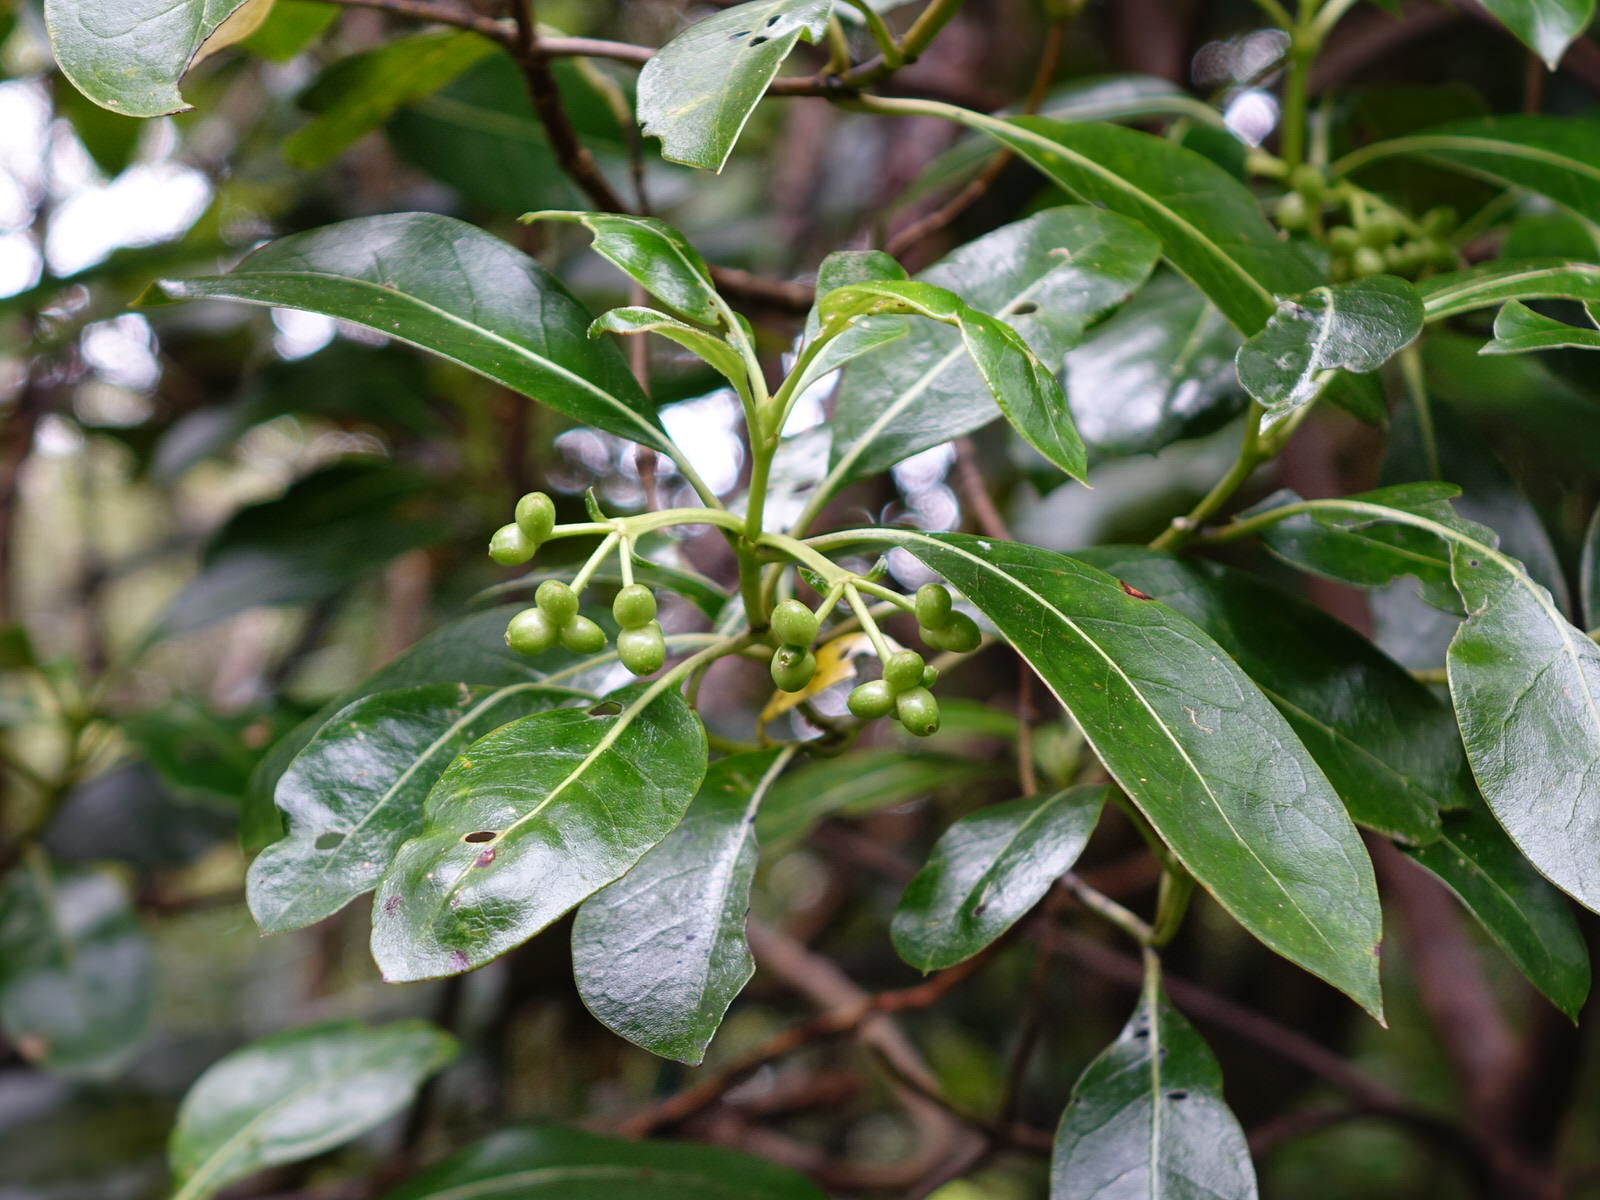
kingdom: Plantae
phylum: Tracheophyta
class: Magnoliopsida
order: Gentianales
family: Rubiaceae
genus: Coprosma
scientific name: Coprosma lucida
